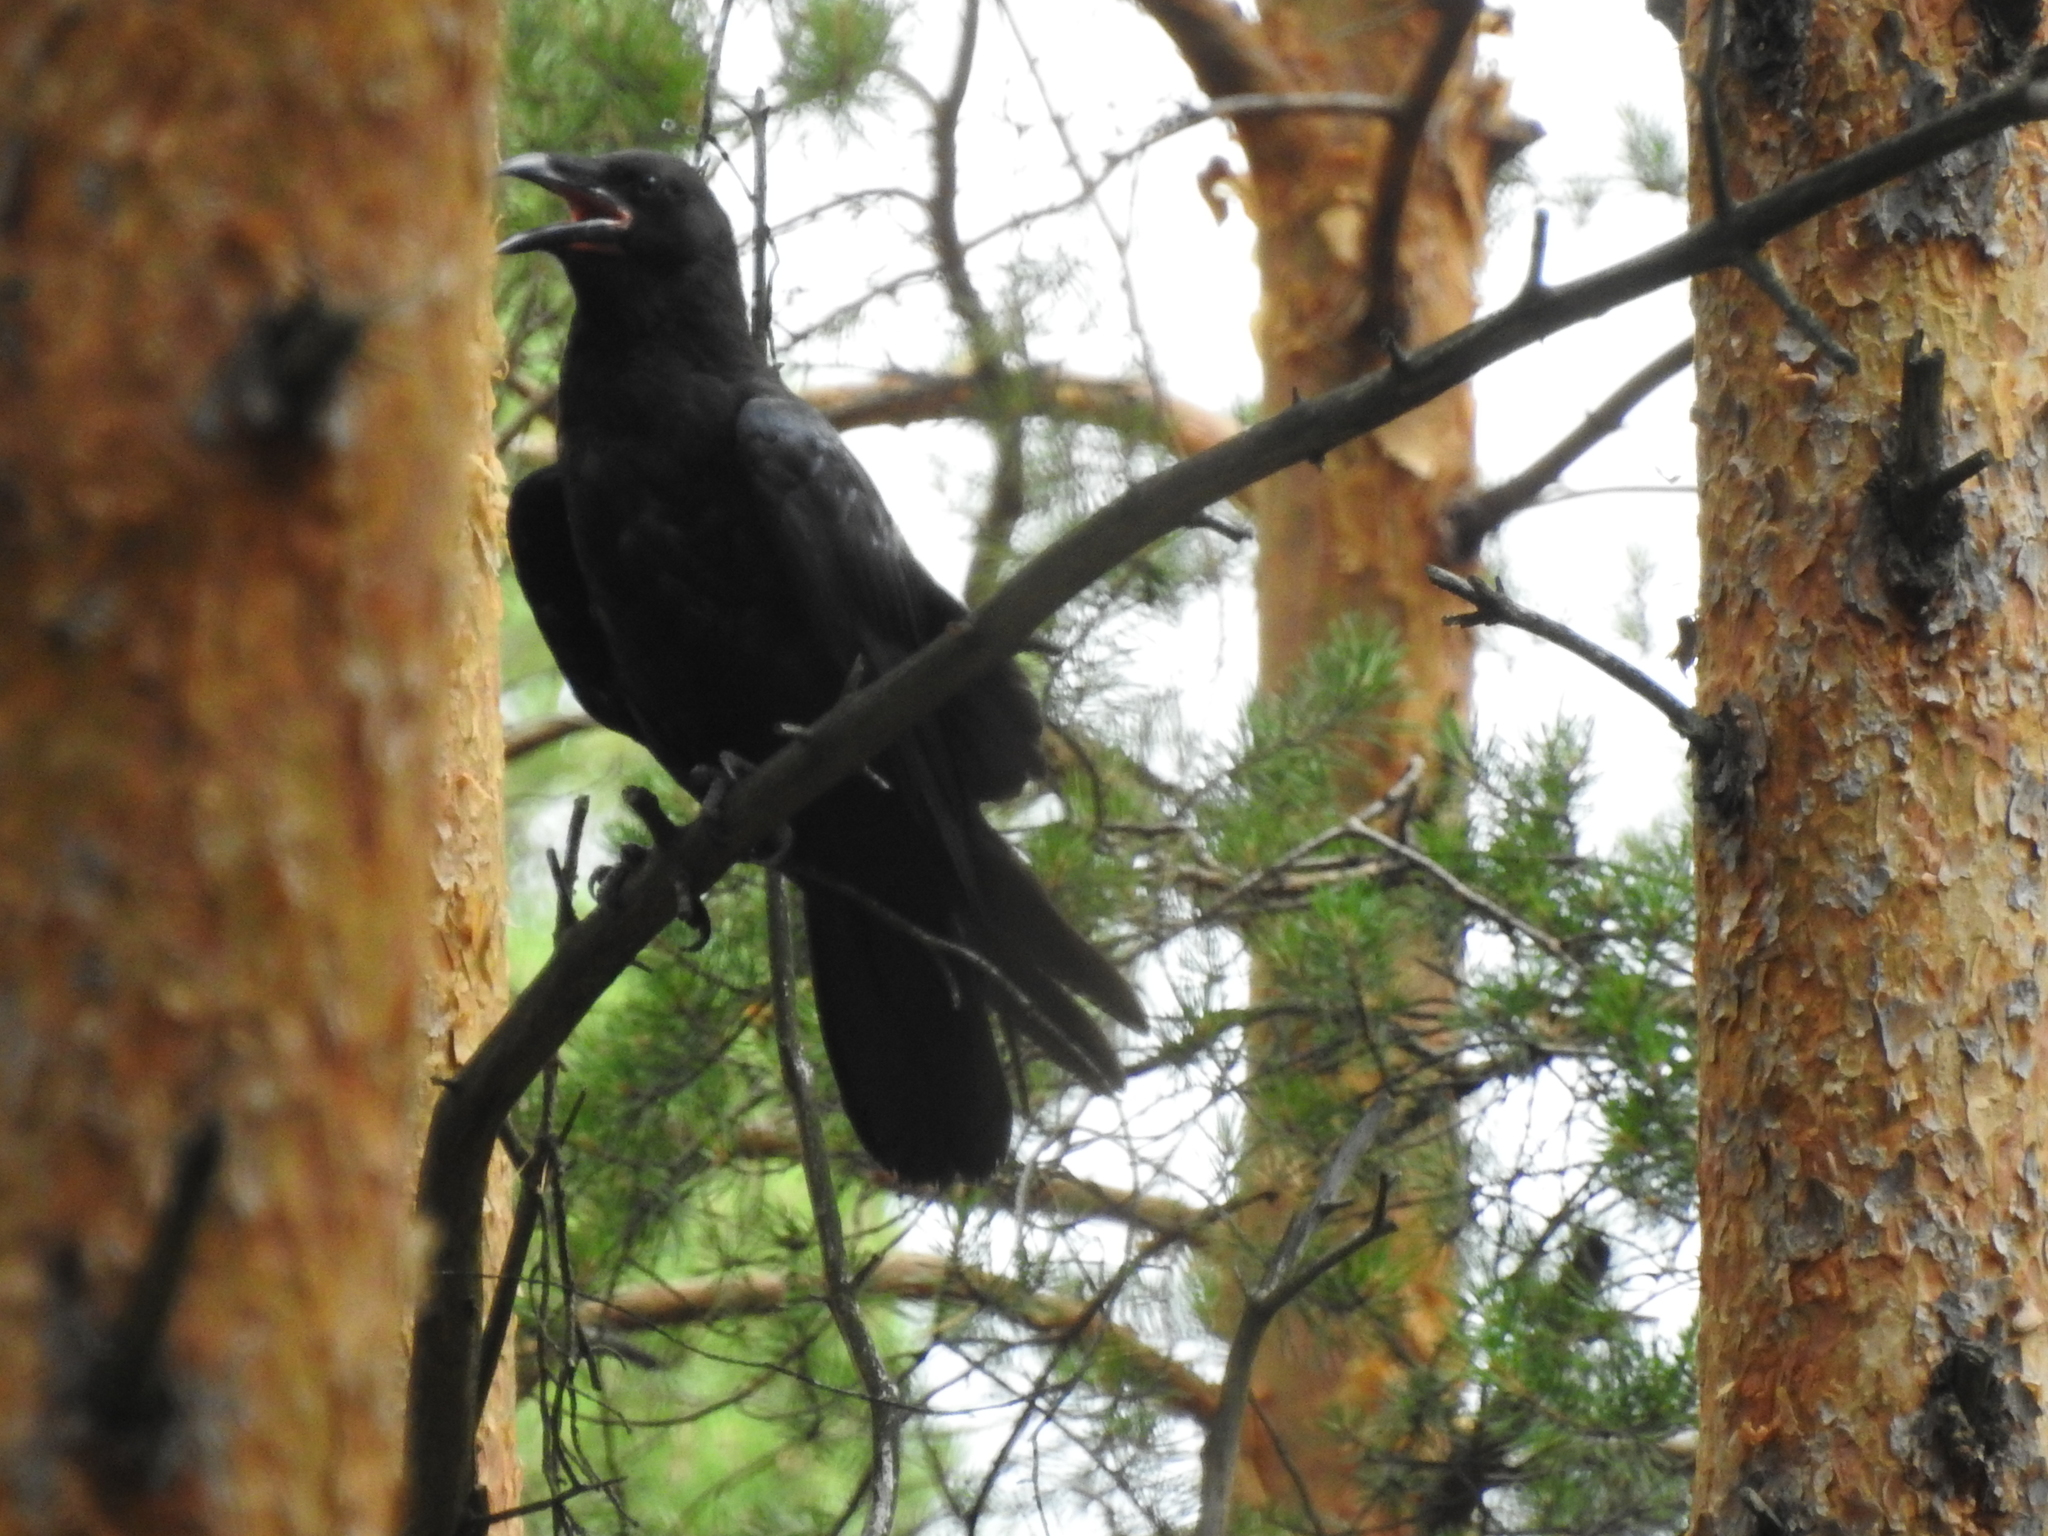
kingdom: Animalia
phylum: Chordata
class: Aves
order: Passeriformes
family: Corvidae
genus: Corvus
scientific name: Corvus corax
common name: Common raven
